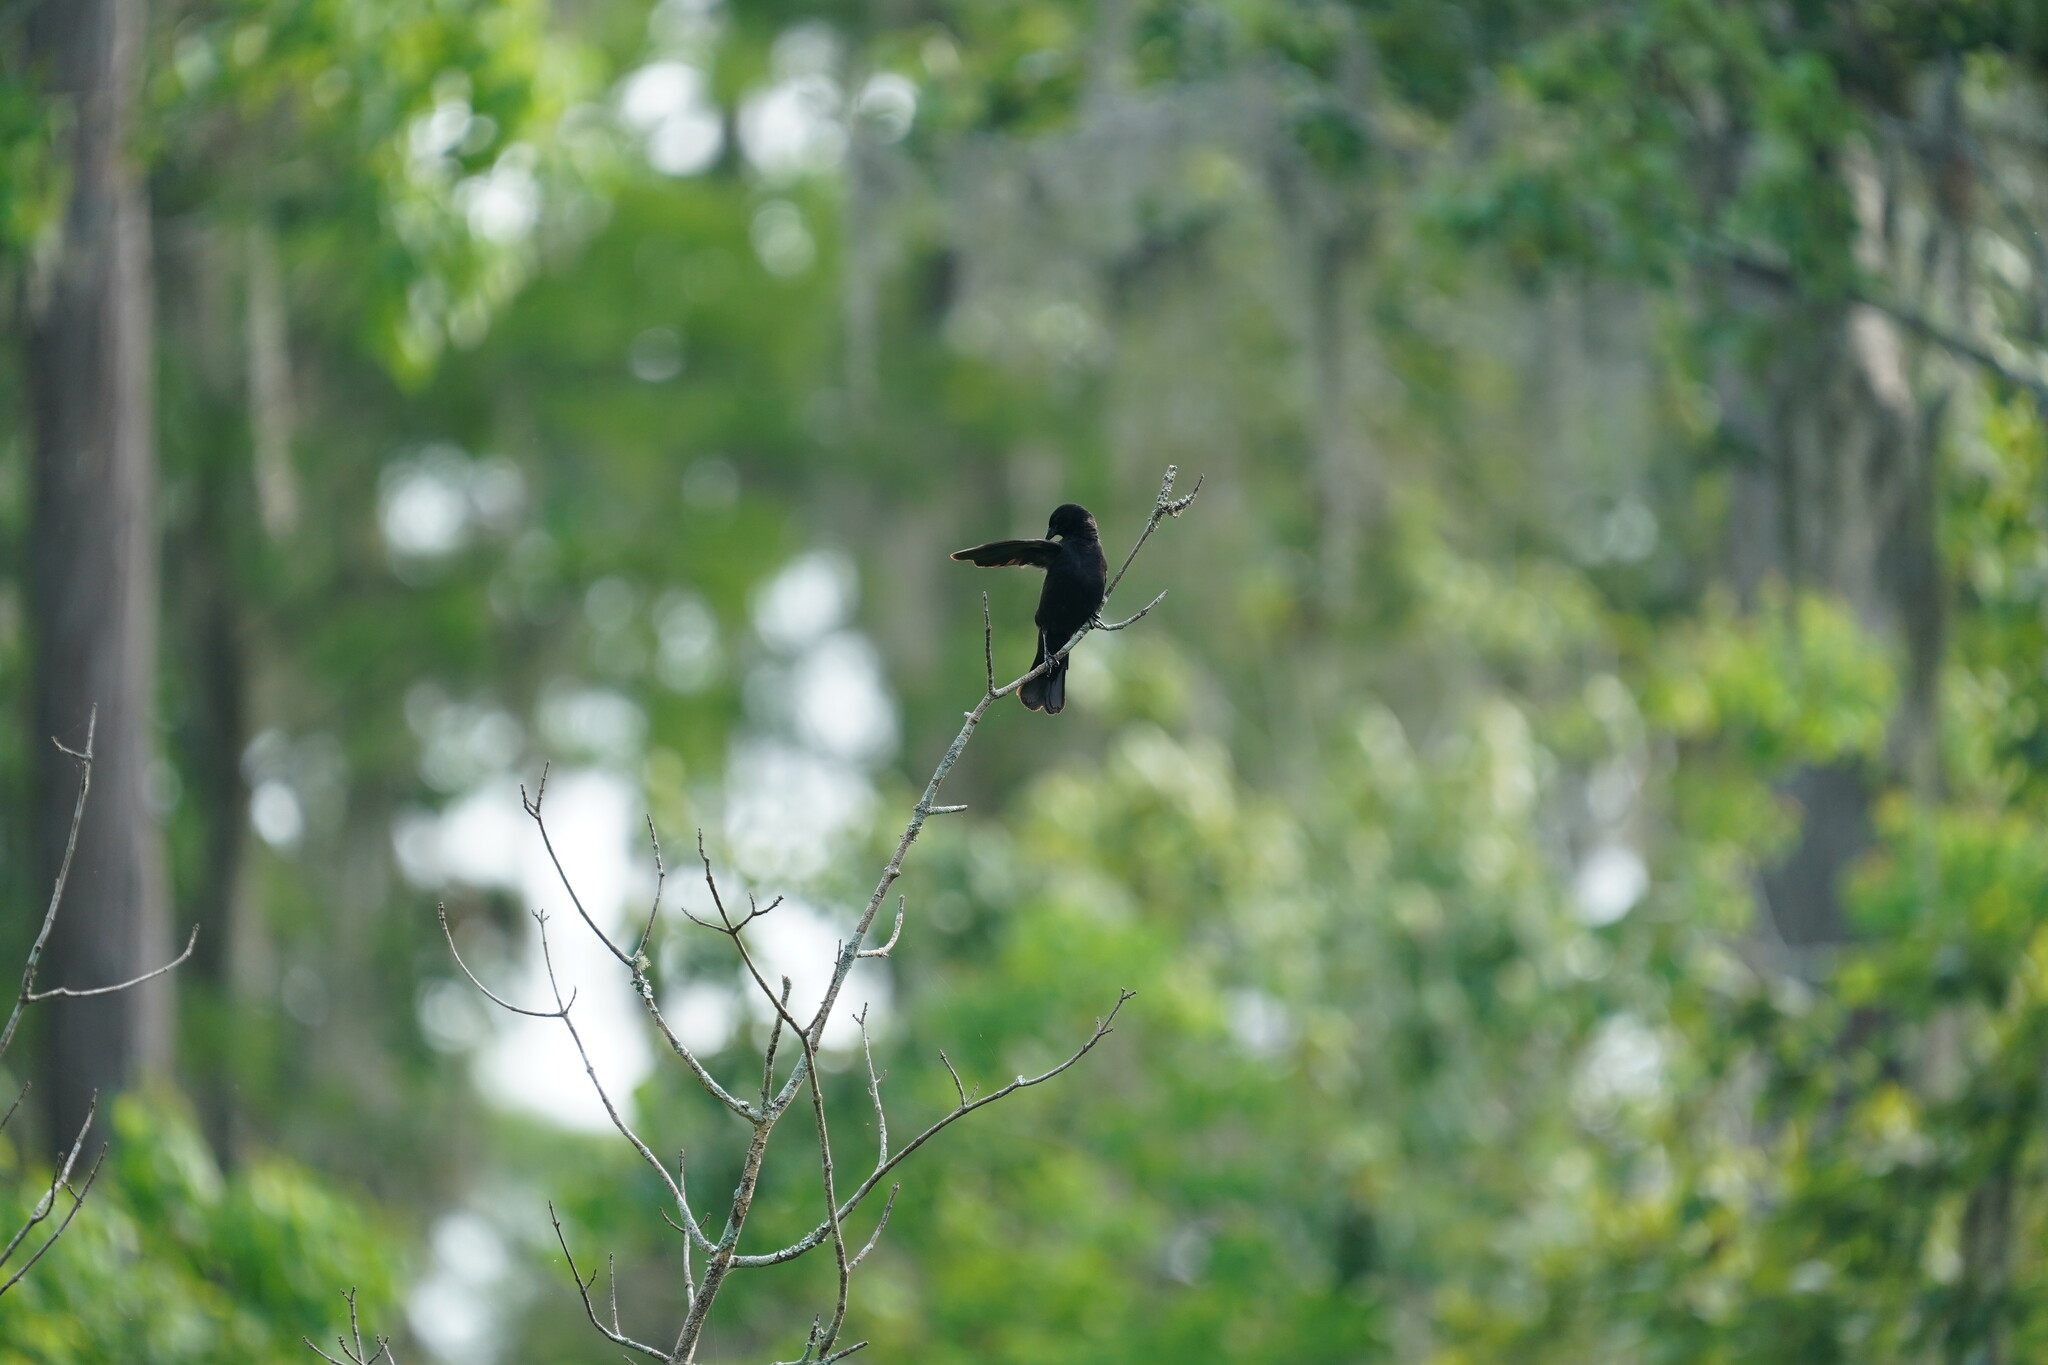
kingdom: Animalia
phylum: Chordata
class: Aves
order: Passeriformes
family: Icteridae
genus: Agelaius
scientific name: Agelaius phoeniceus
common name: Red-winged blackbird
